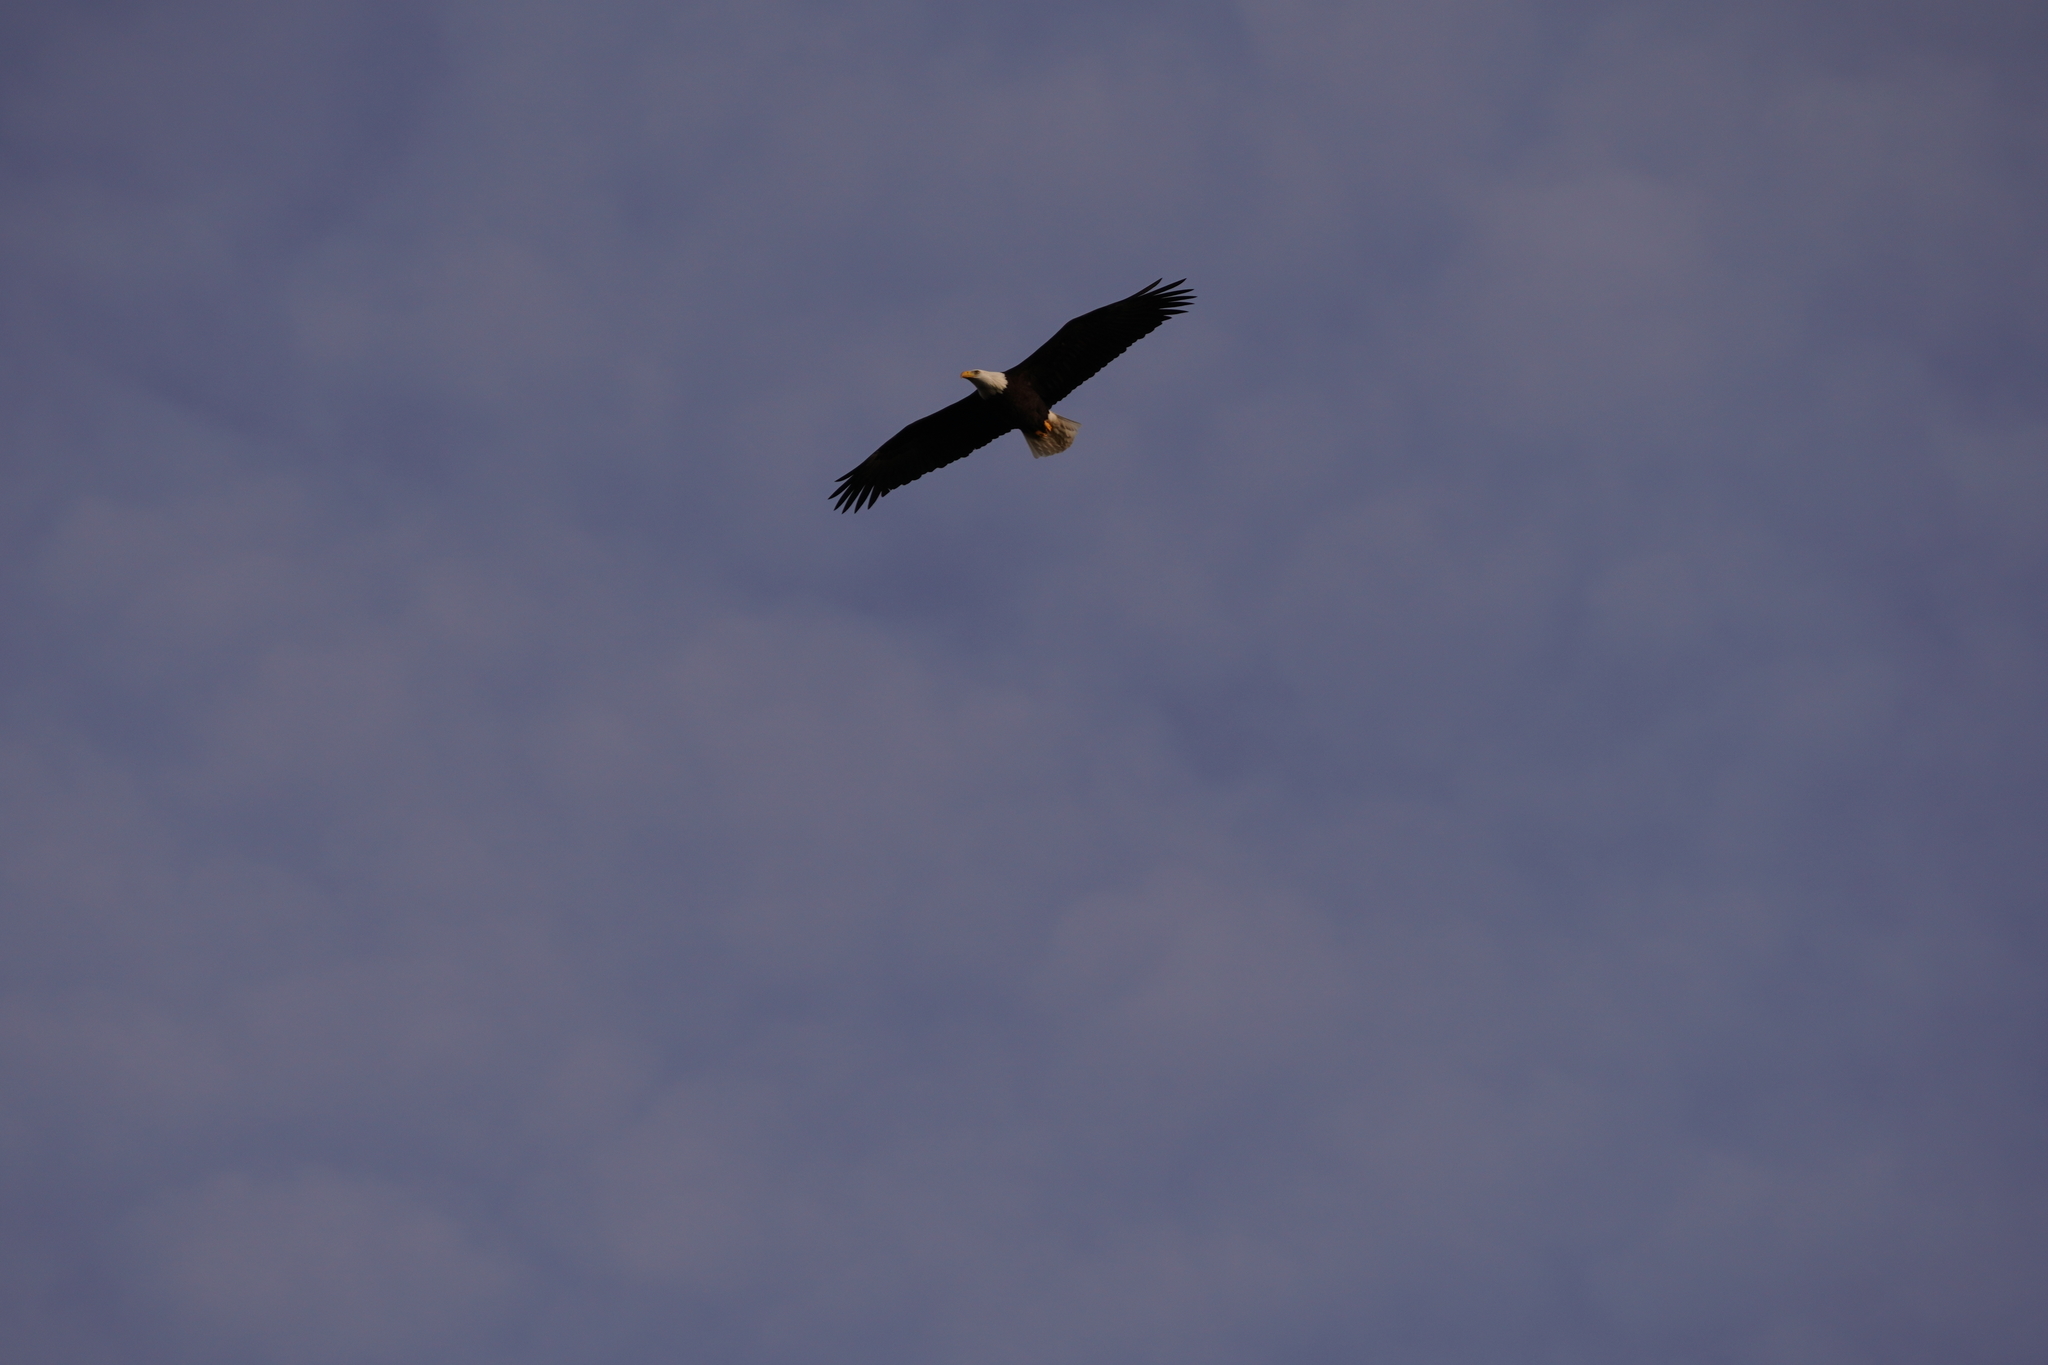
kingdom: Animalia
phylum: Chordata
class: Aves
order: Accipitriformes
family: Accipitridae
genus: Haliaeetus
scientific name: Haliaeetus leucocephalus
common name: Bald eagle
